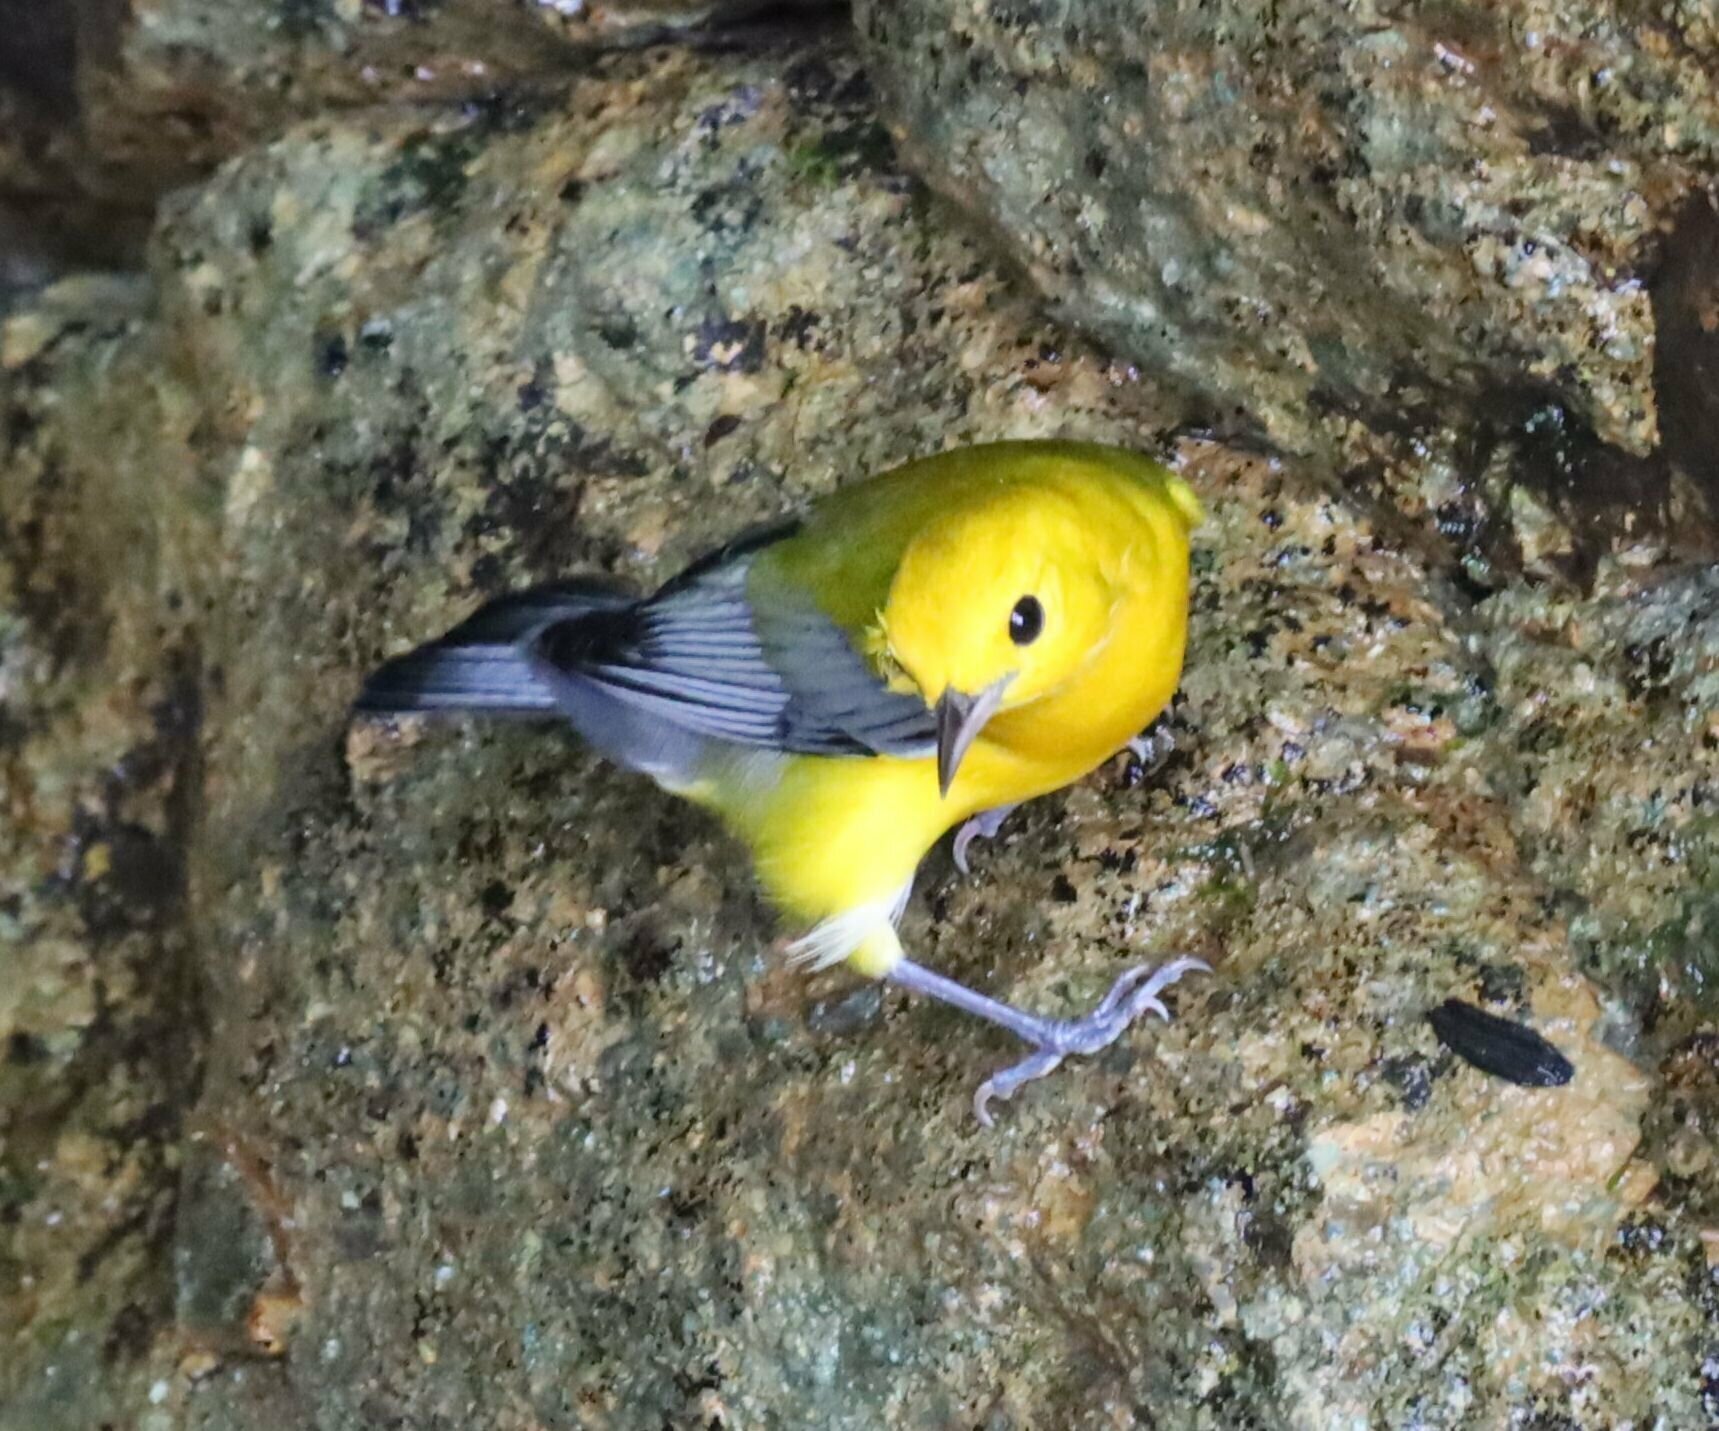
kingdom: Animalia
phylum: Chordata
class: Aves
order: Passeriformes
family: Parulidae
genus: Protonotaria
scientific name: Protonotaria citrea
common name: Prothonotary warbler
